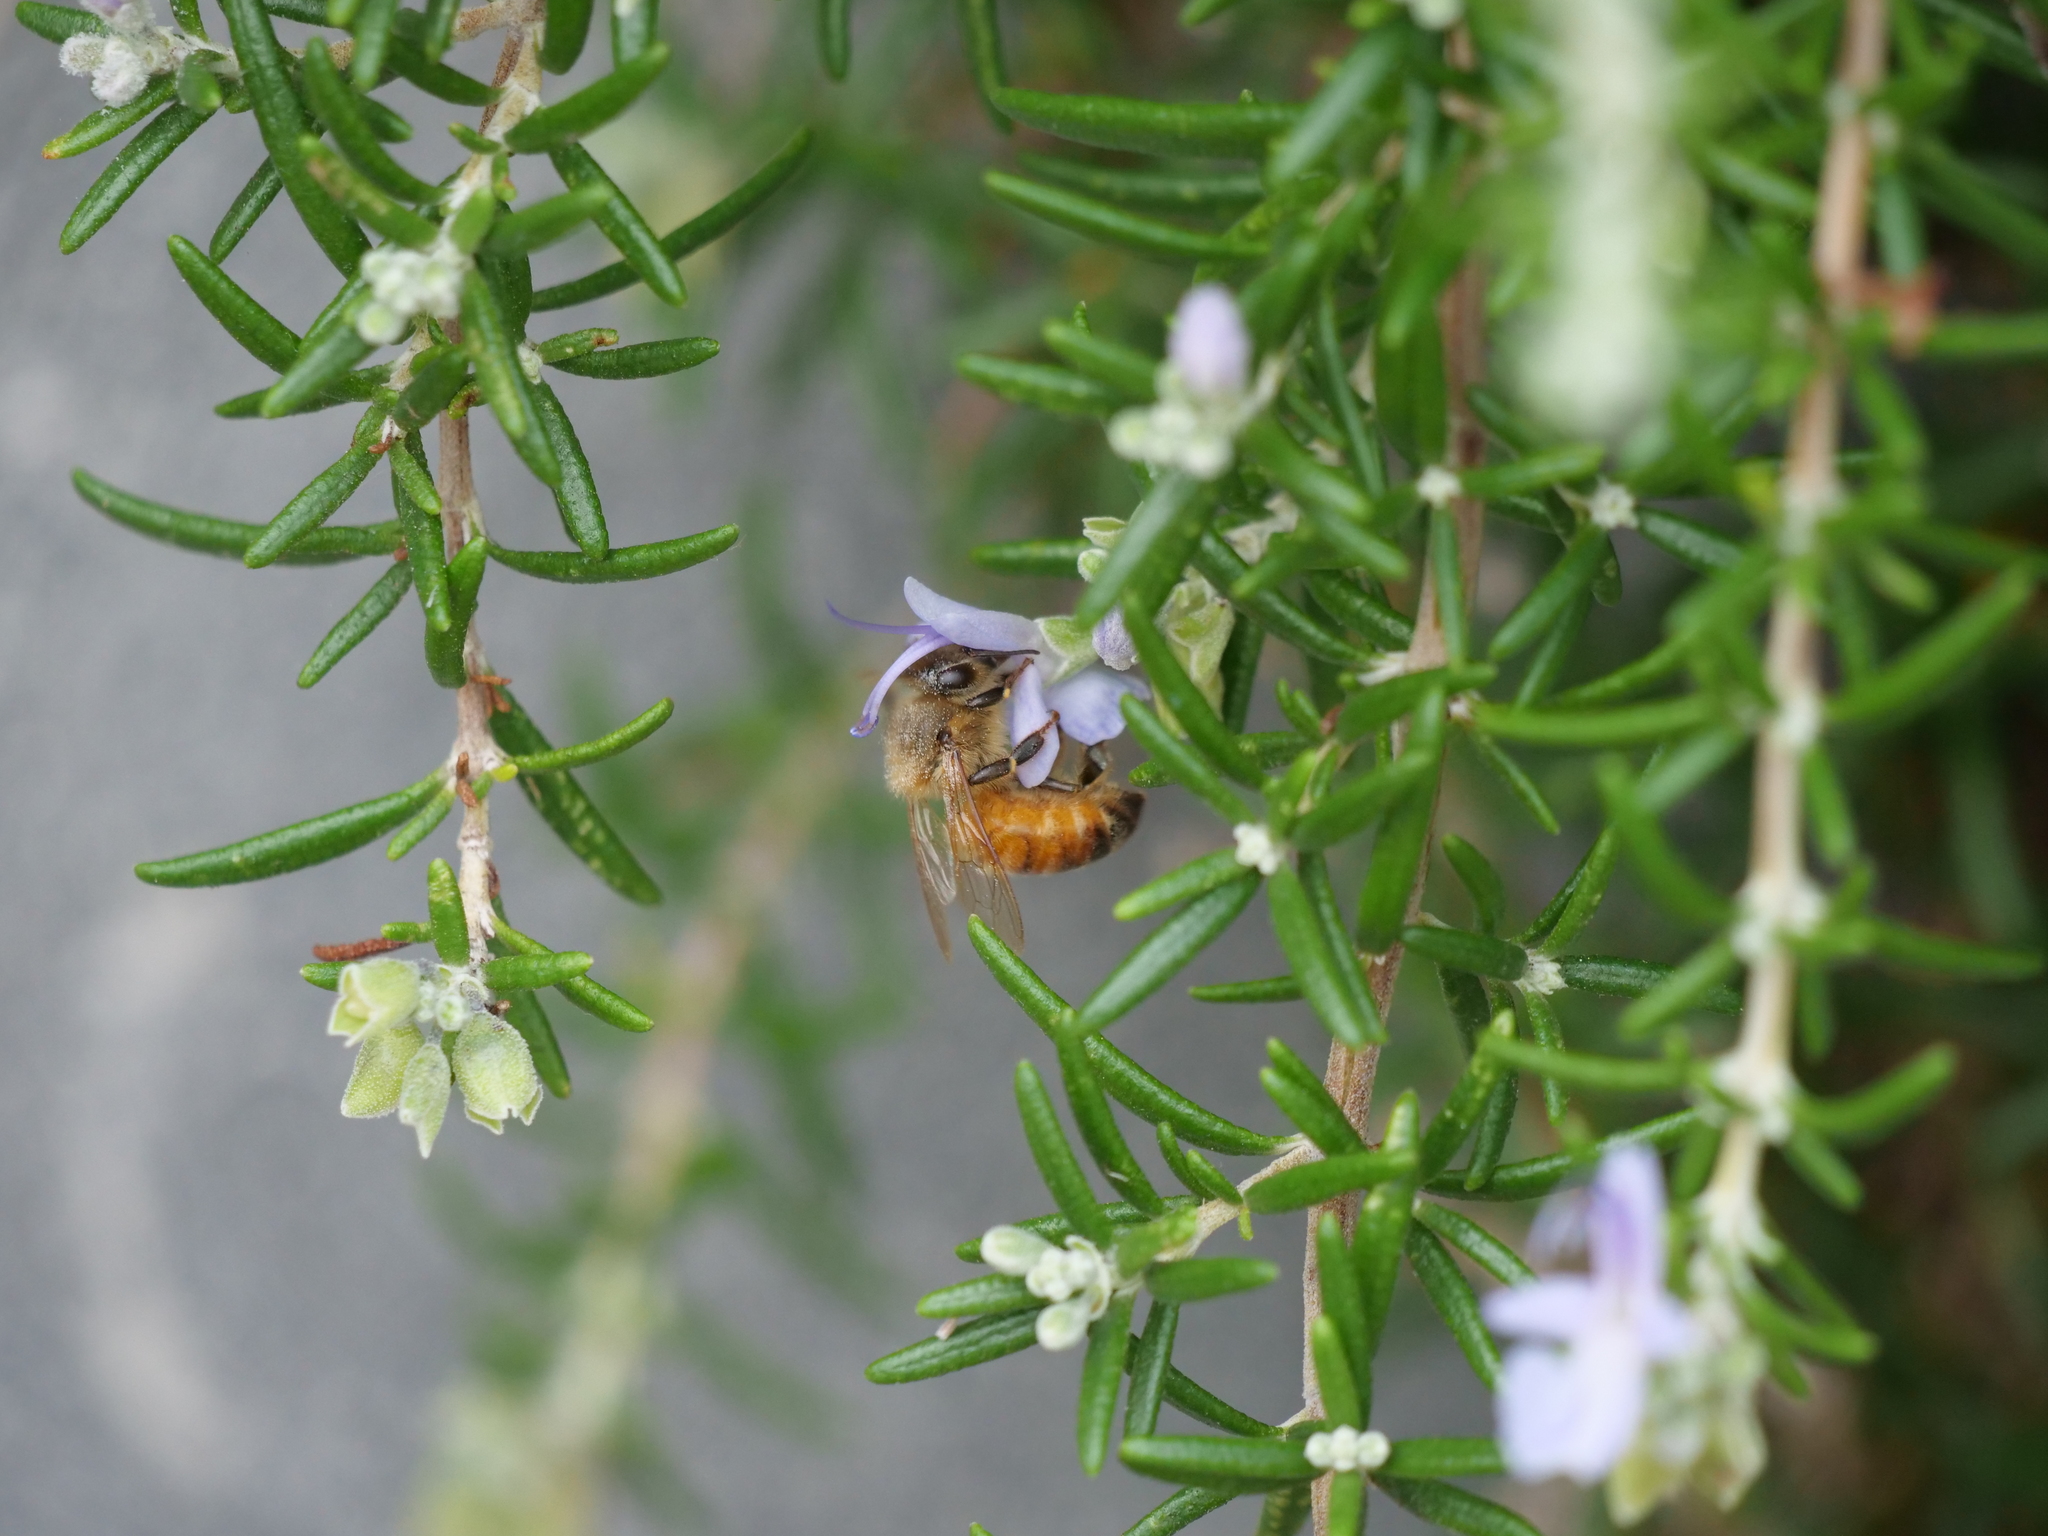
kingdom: Animalia
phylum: Arthropoda
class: Insecta
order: Hymenoptera
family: Apidae
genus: Apis
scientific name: Apis mellifera
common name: Honey bee
